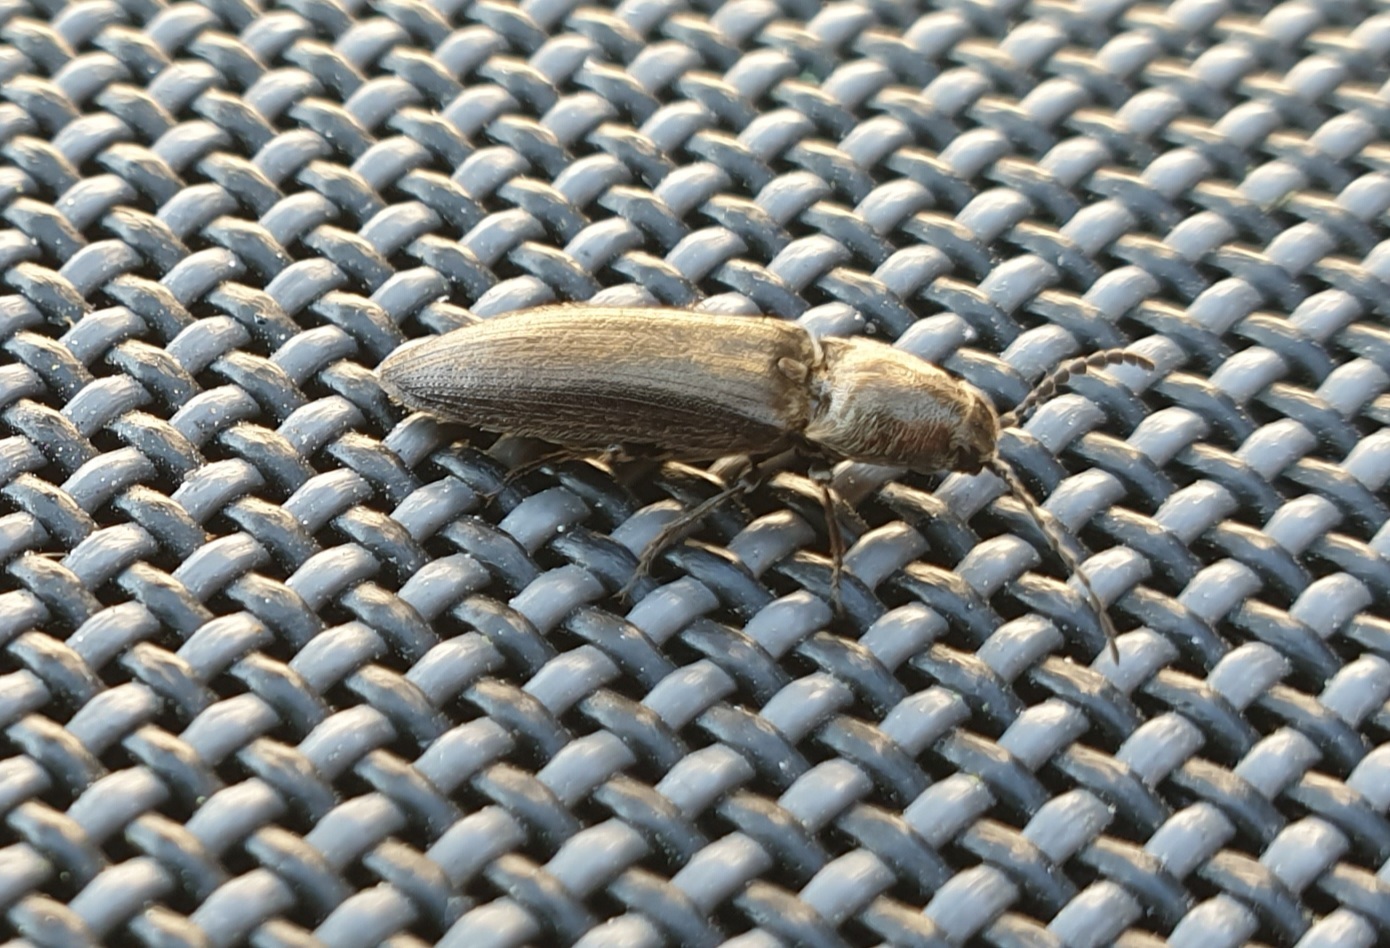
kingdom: Animalia
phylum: Arthropoda
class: Insecta
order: Coleoptera
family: Elateridae
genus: Cidnopus
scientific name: Cidnopus aeruginosus
